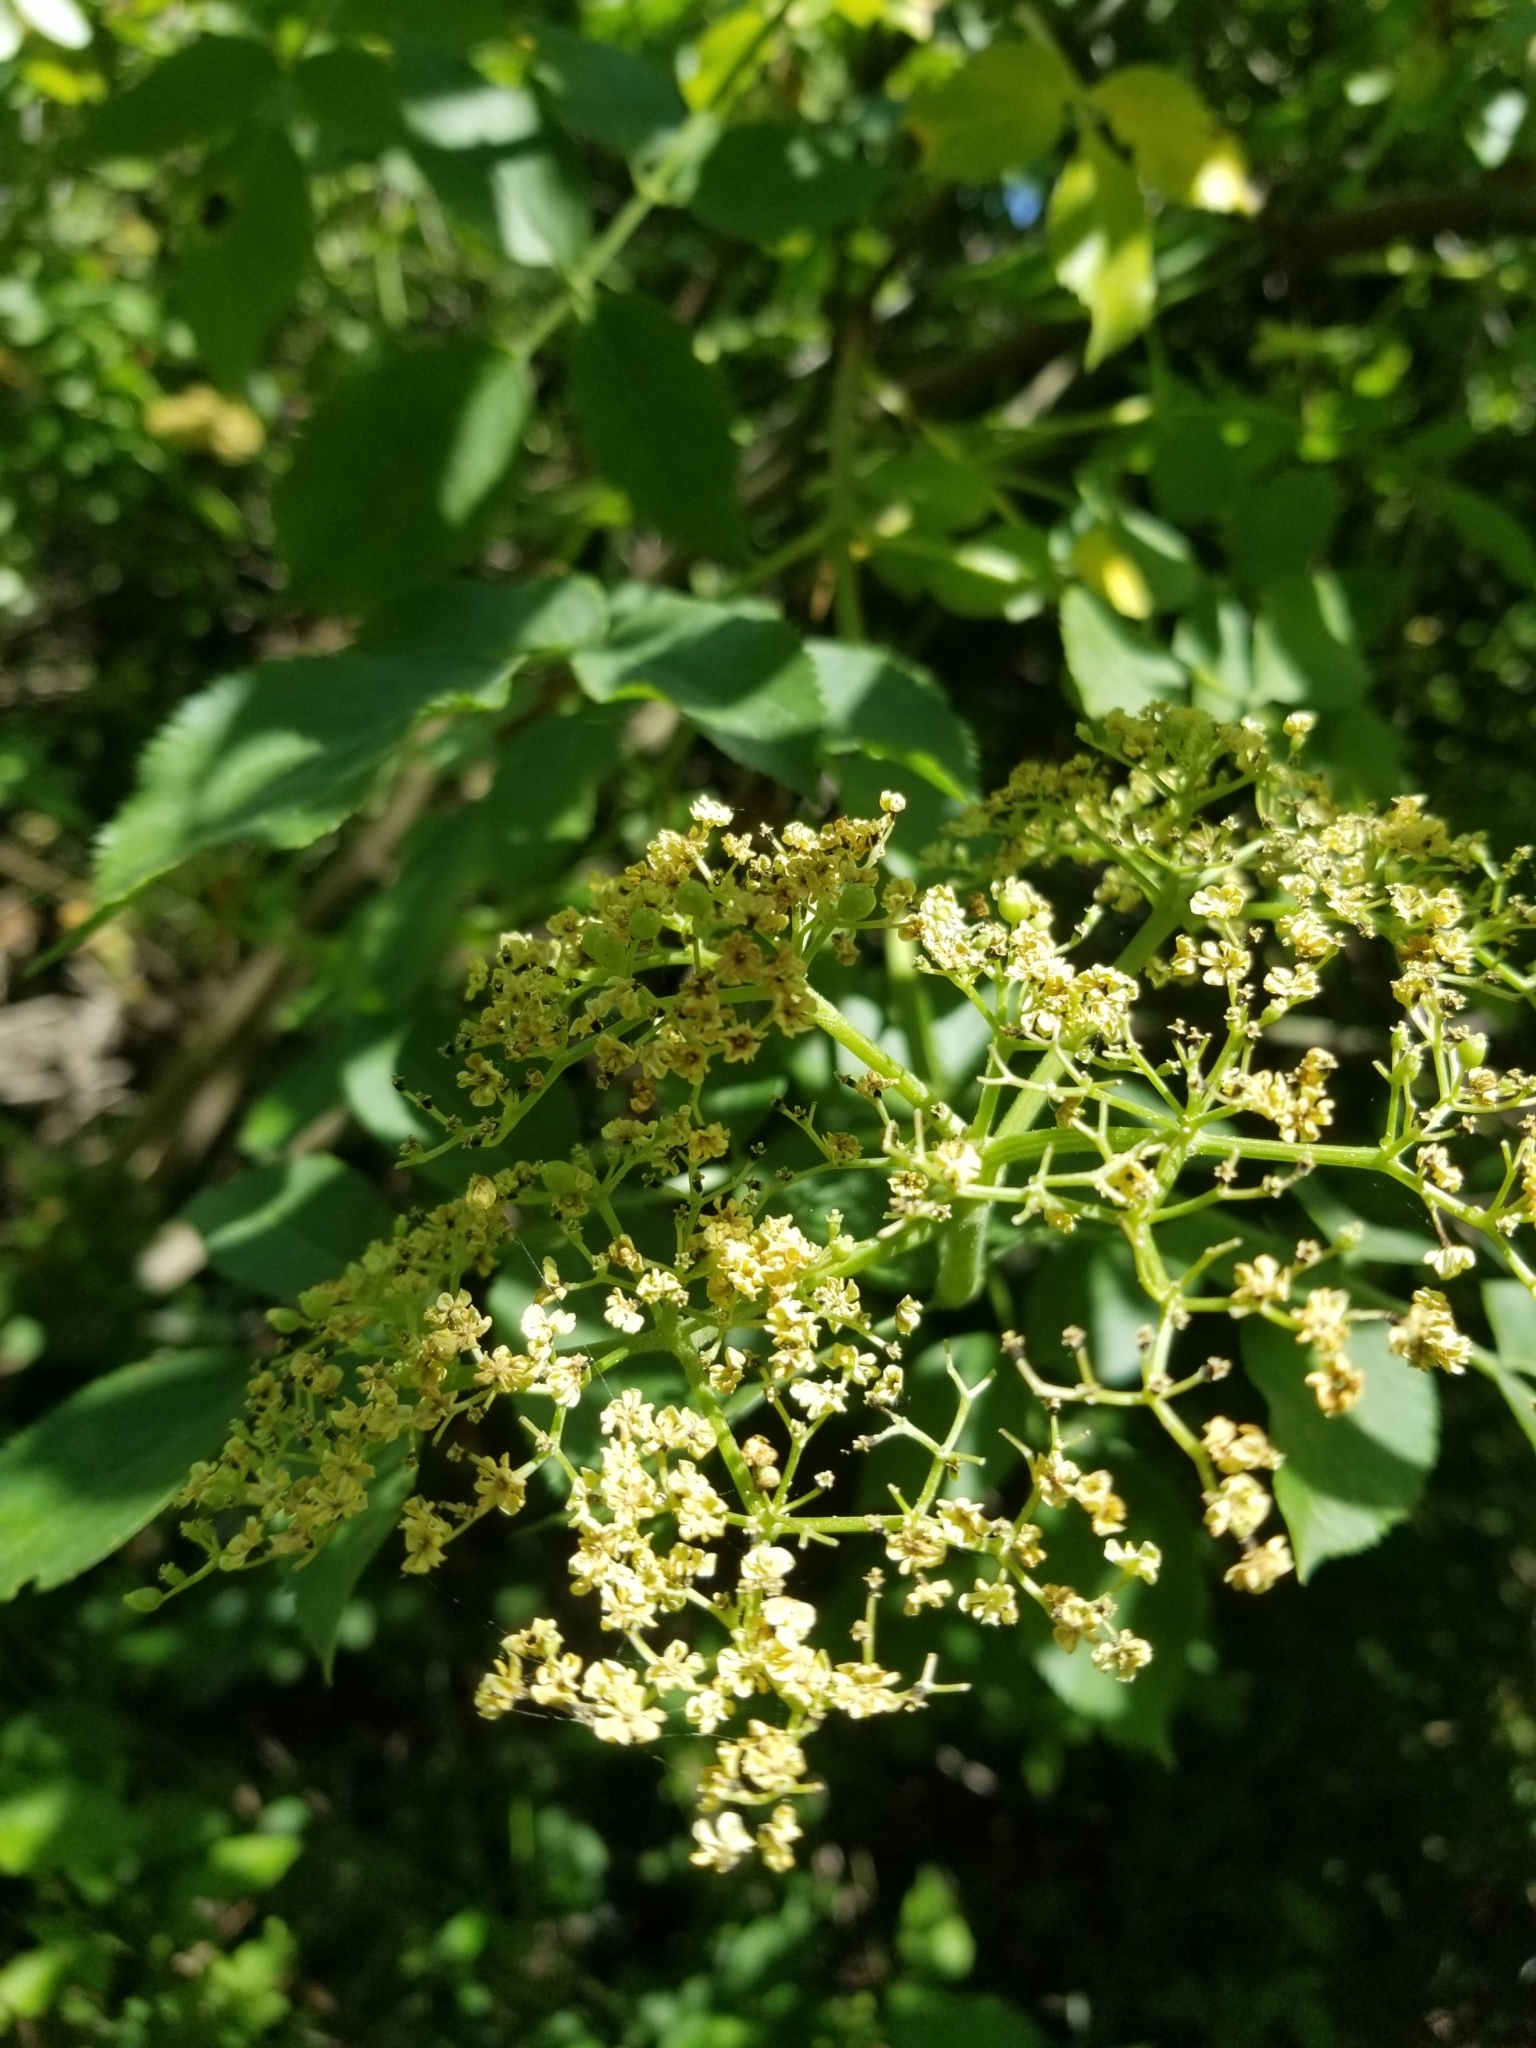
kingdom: Plantae
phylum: Tracheophyta
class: Magnoliopsida
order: Dipsacales
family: Viburnaceae
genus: Sambucus
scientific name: Sambucus cerulea
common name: Blue elder
